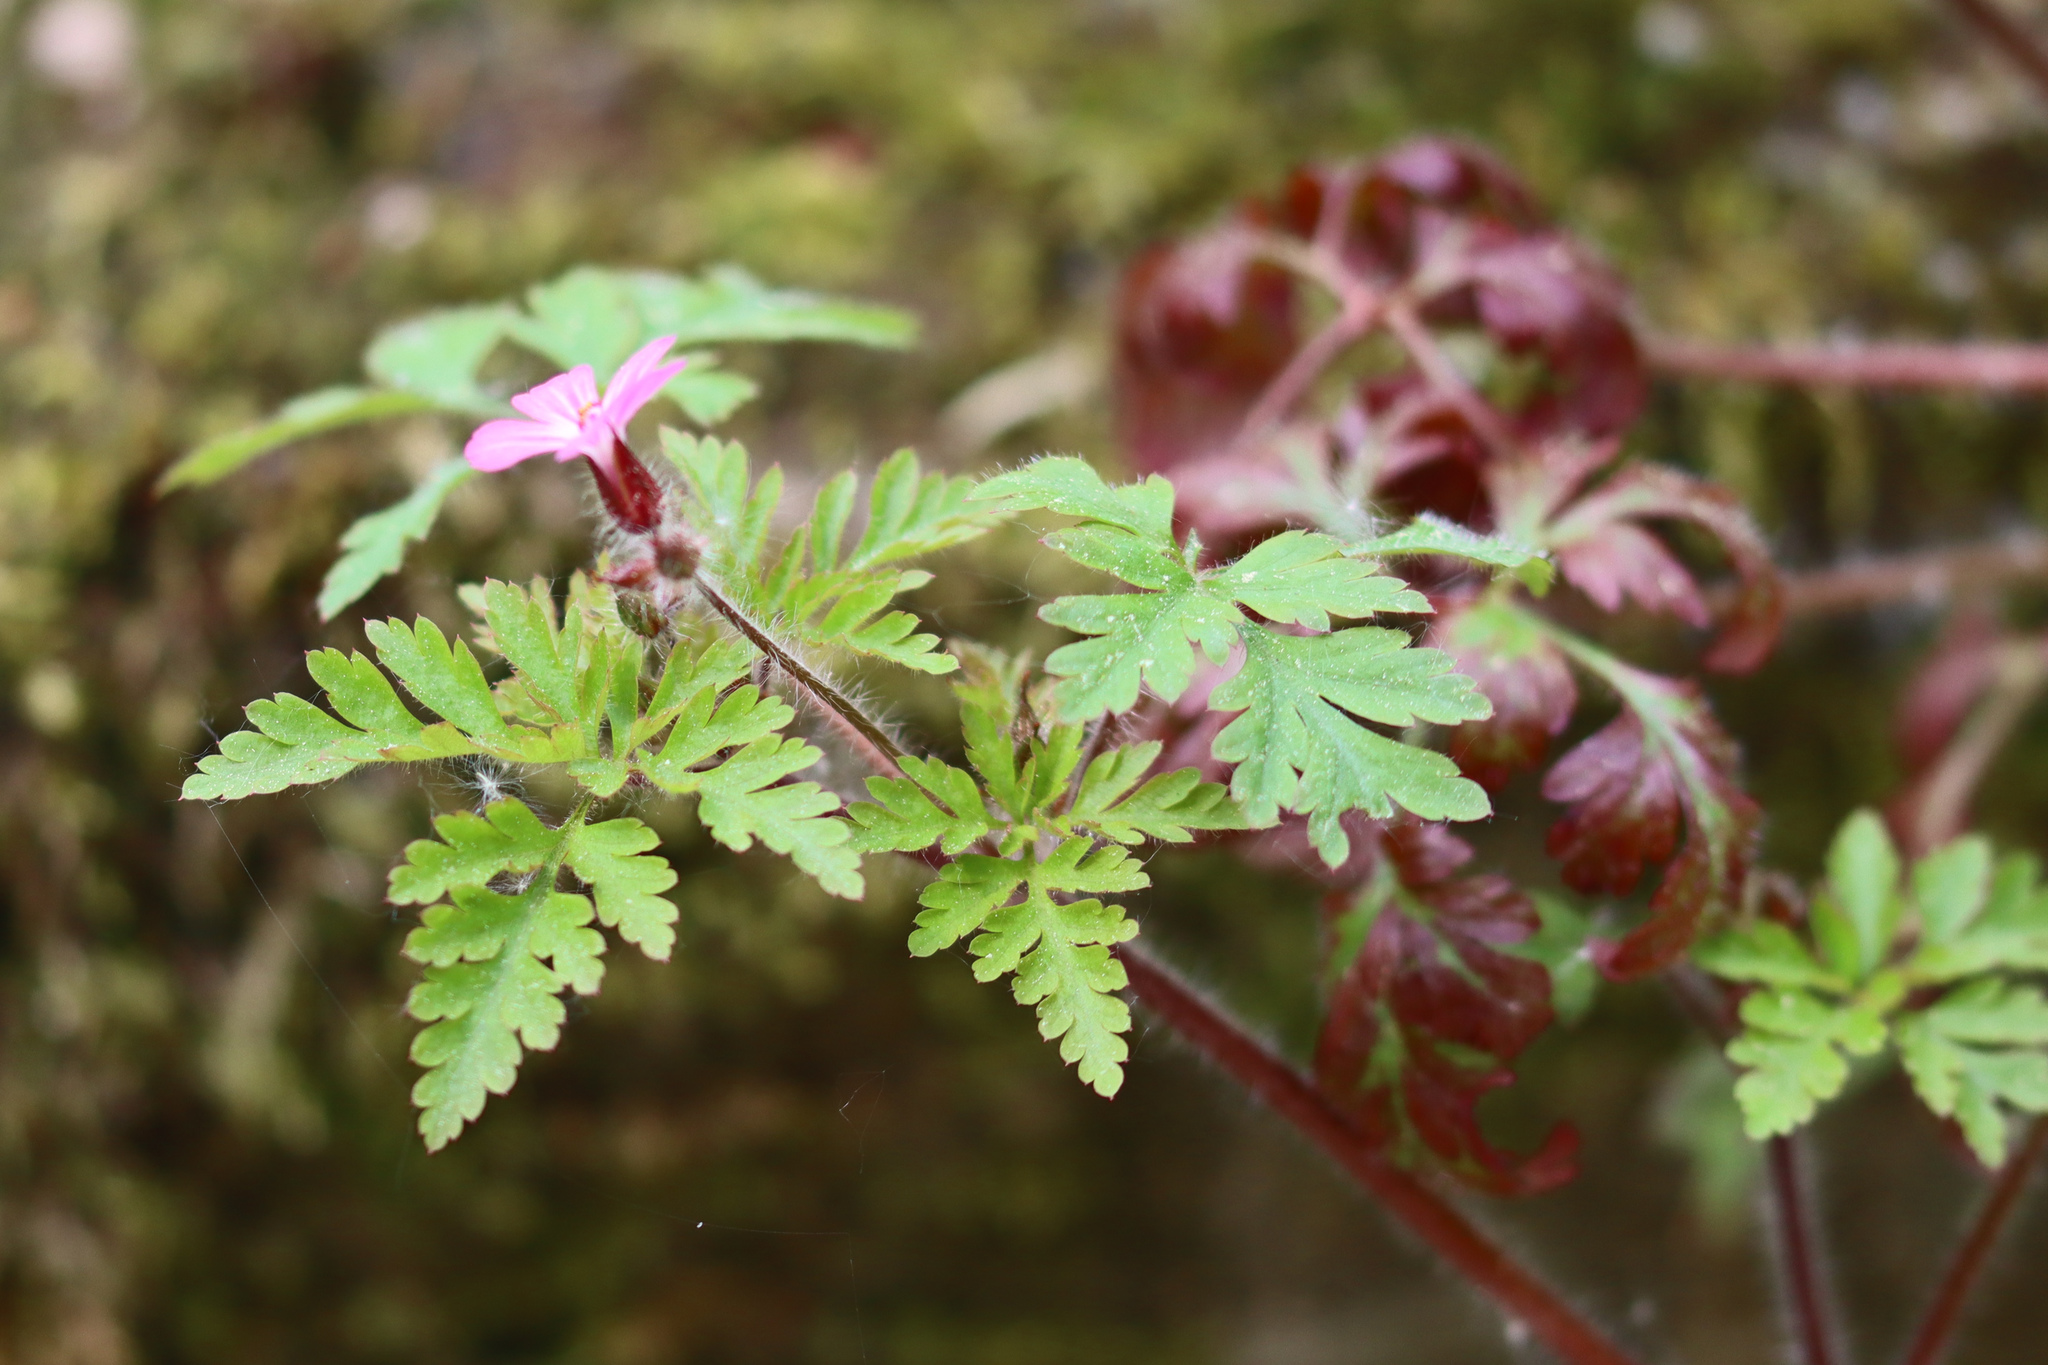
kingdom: Plantae
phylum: Tracheophyta
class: Magnoliopsida
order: Geraniales
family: Geraniaceae
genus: Geranium
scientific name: Geranium robertianum
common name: Herb-robert
